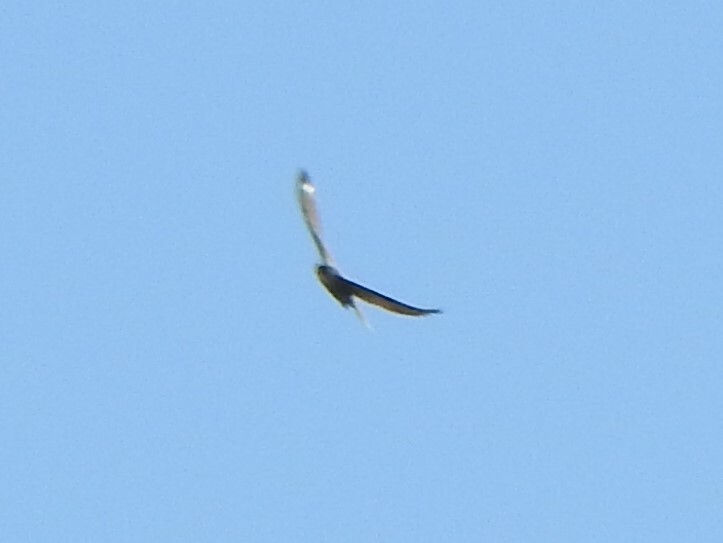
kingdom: Animalia
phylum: Chordata
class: Aves
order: Falconiformes
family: Falconidae
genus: Falco
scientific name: Falco peregrinus
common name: Peregrine falcon
